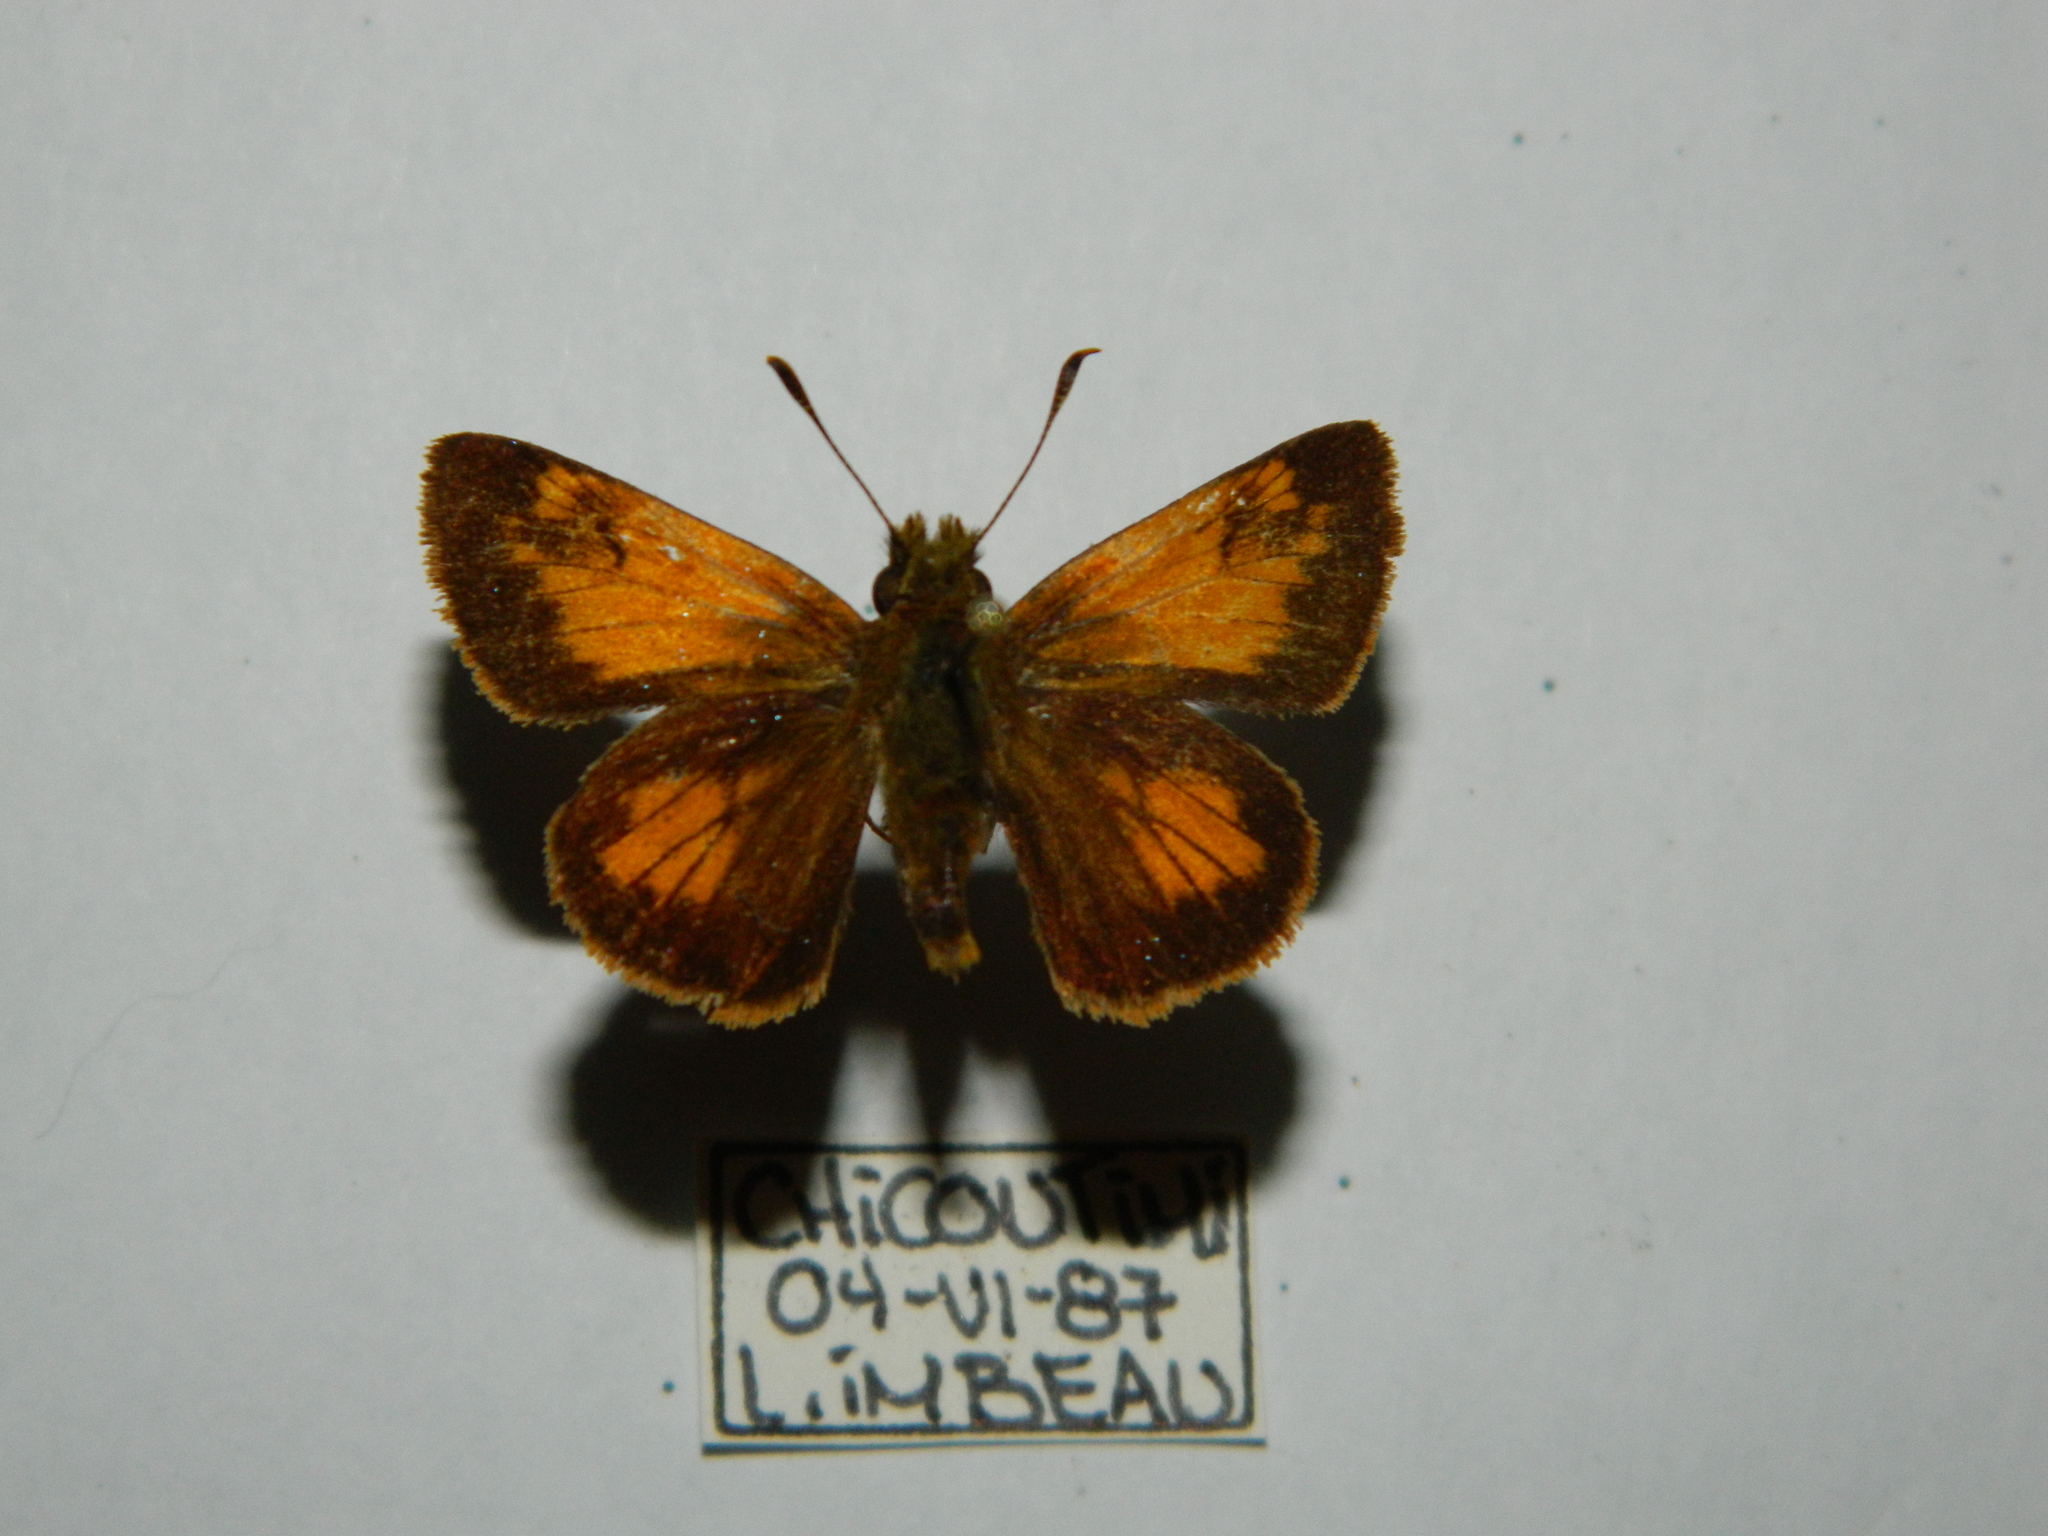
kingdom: Animalia
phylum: Arthropoda
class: Insecta
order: Lepidoptera
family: Hesperiidae
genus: Lon
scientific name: Lon hobomok
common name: Hobomok skipper
